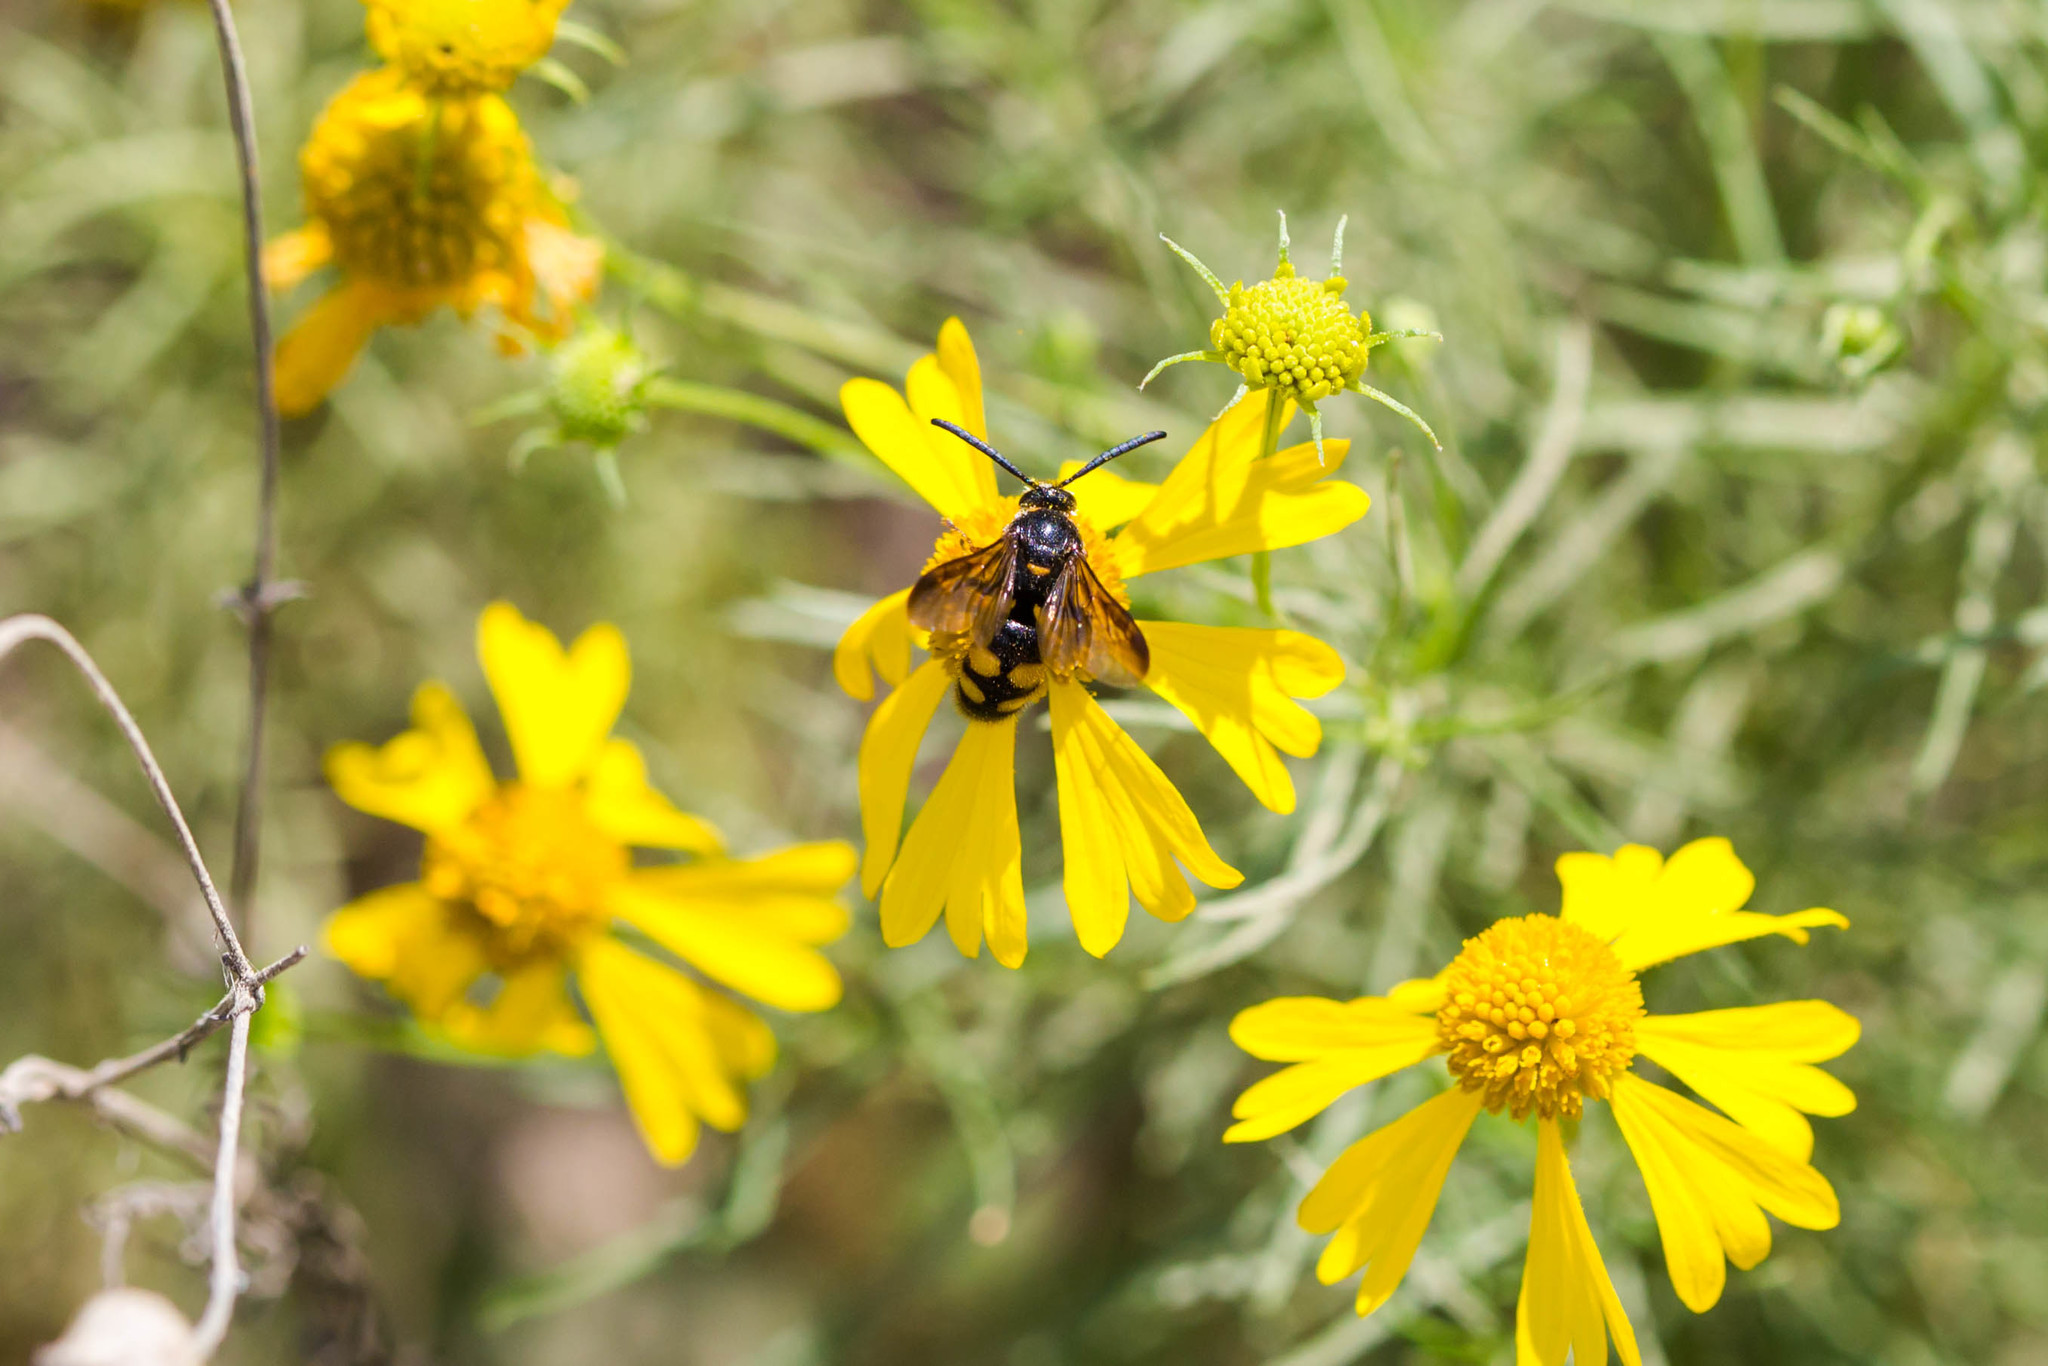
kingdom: Animalia
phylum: Arthropoda
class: Insecta
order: Hymenoptera
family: Scoliidae
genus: Scolia
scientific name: Scolia nobilitata
